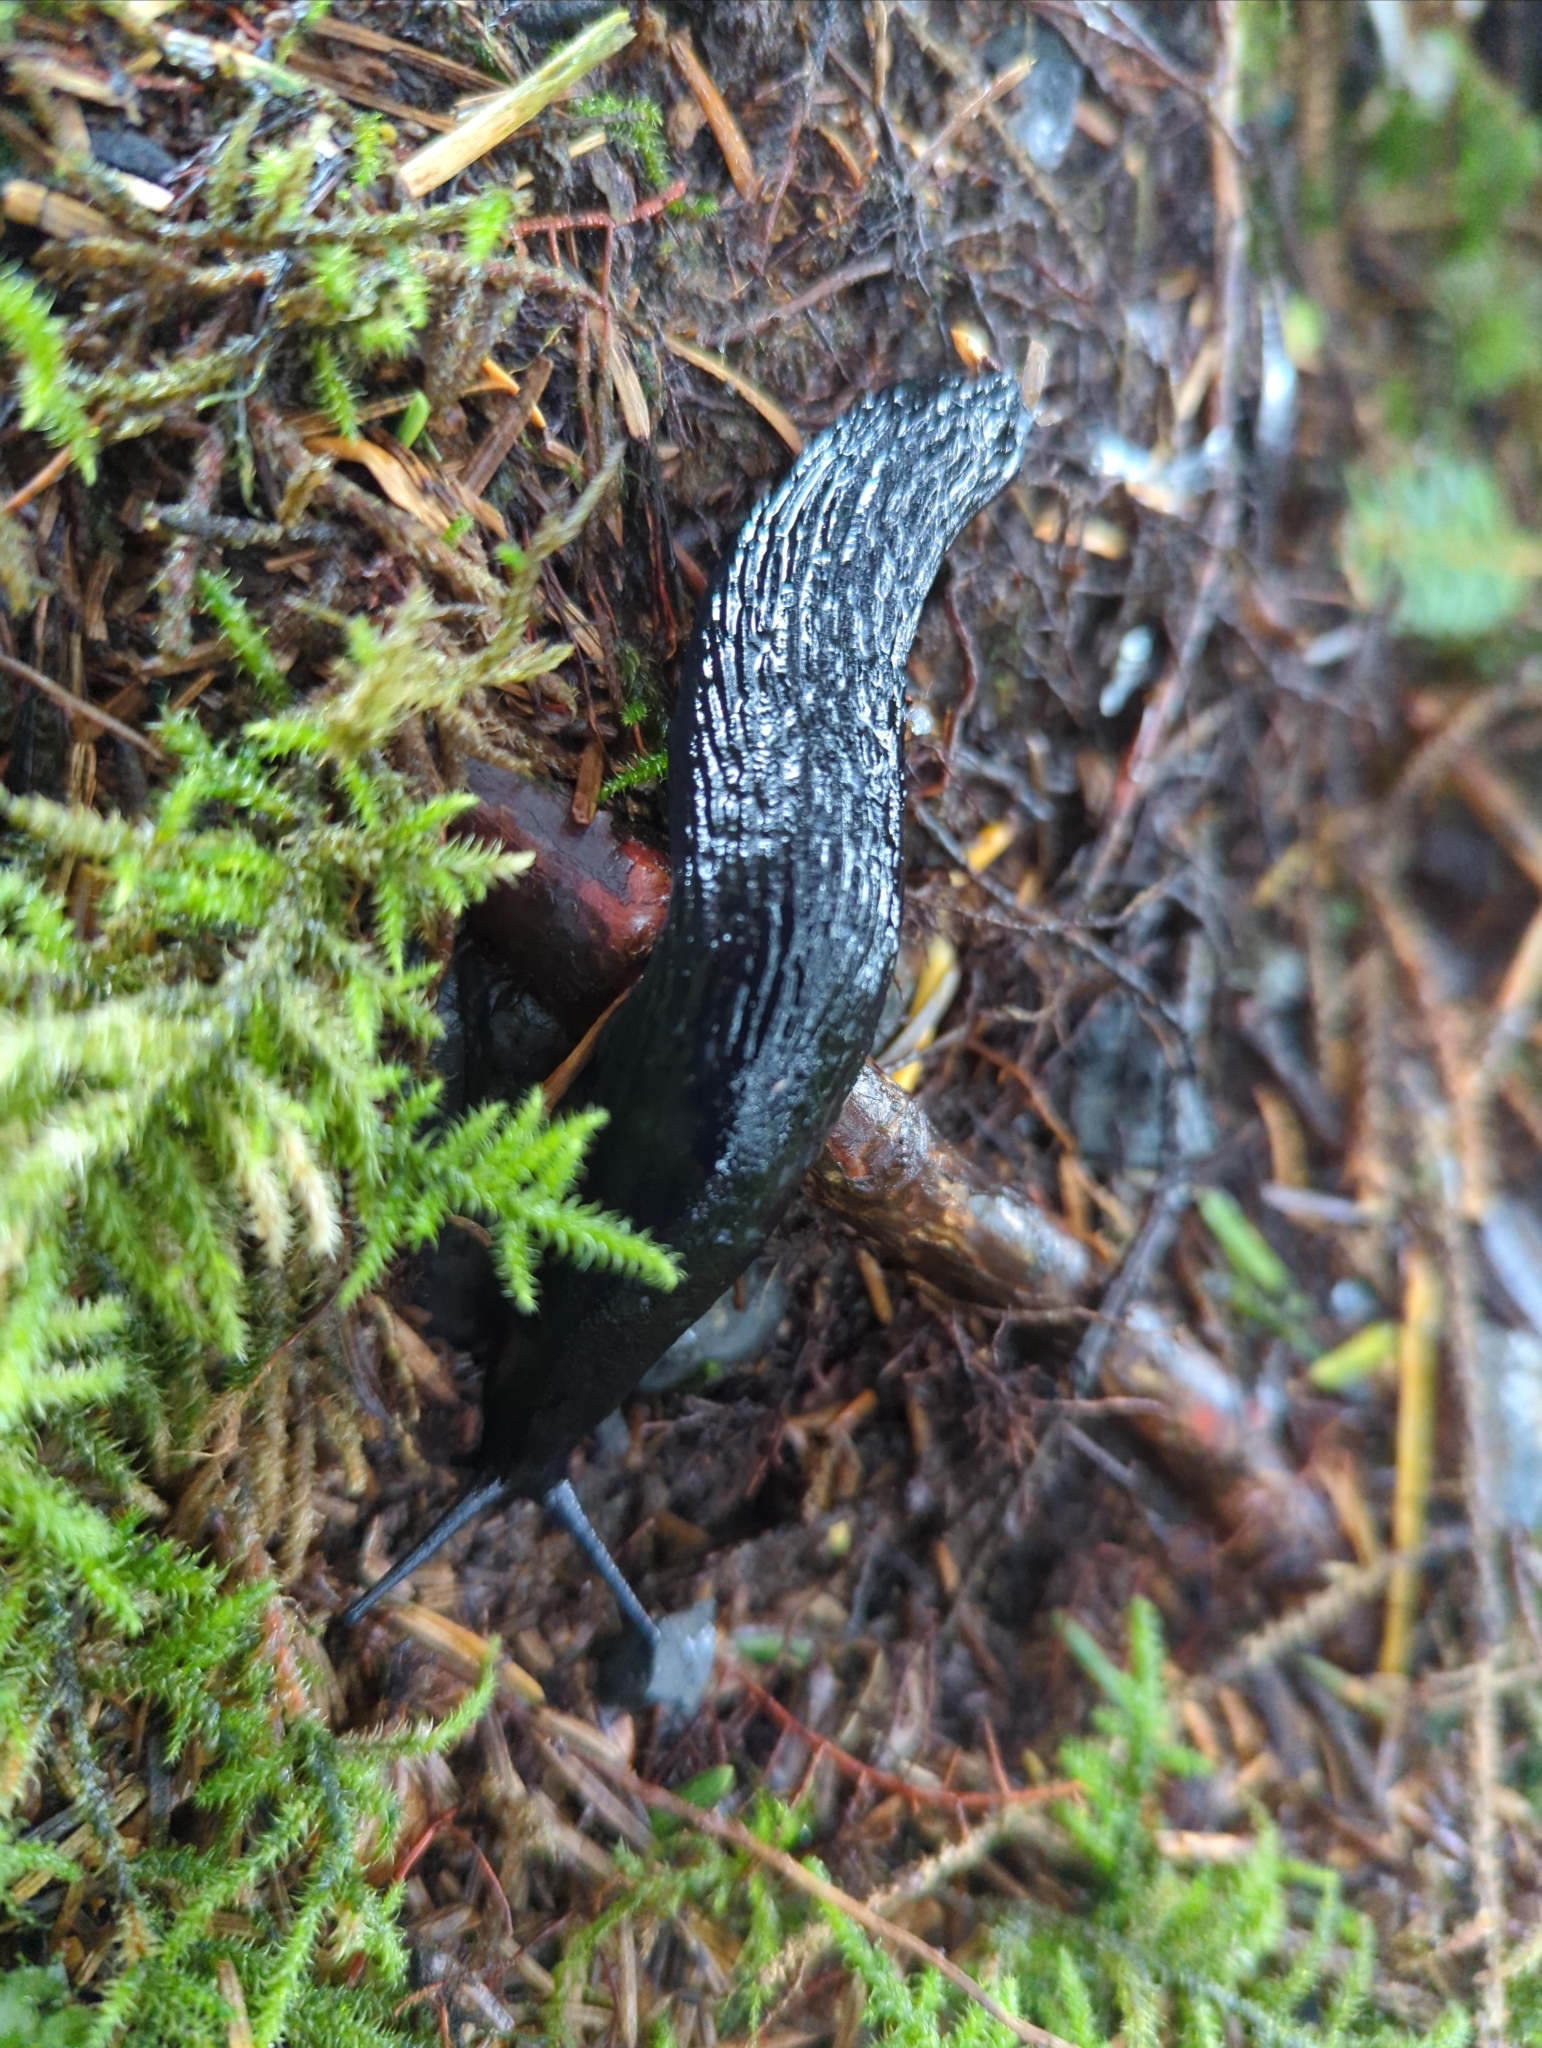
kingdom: Animalia
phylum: Mollusca
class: Gastropoda
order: Stylommatophora
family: Arionidae
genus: Arion
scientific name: Arion
